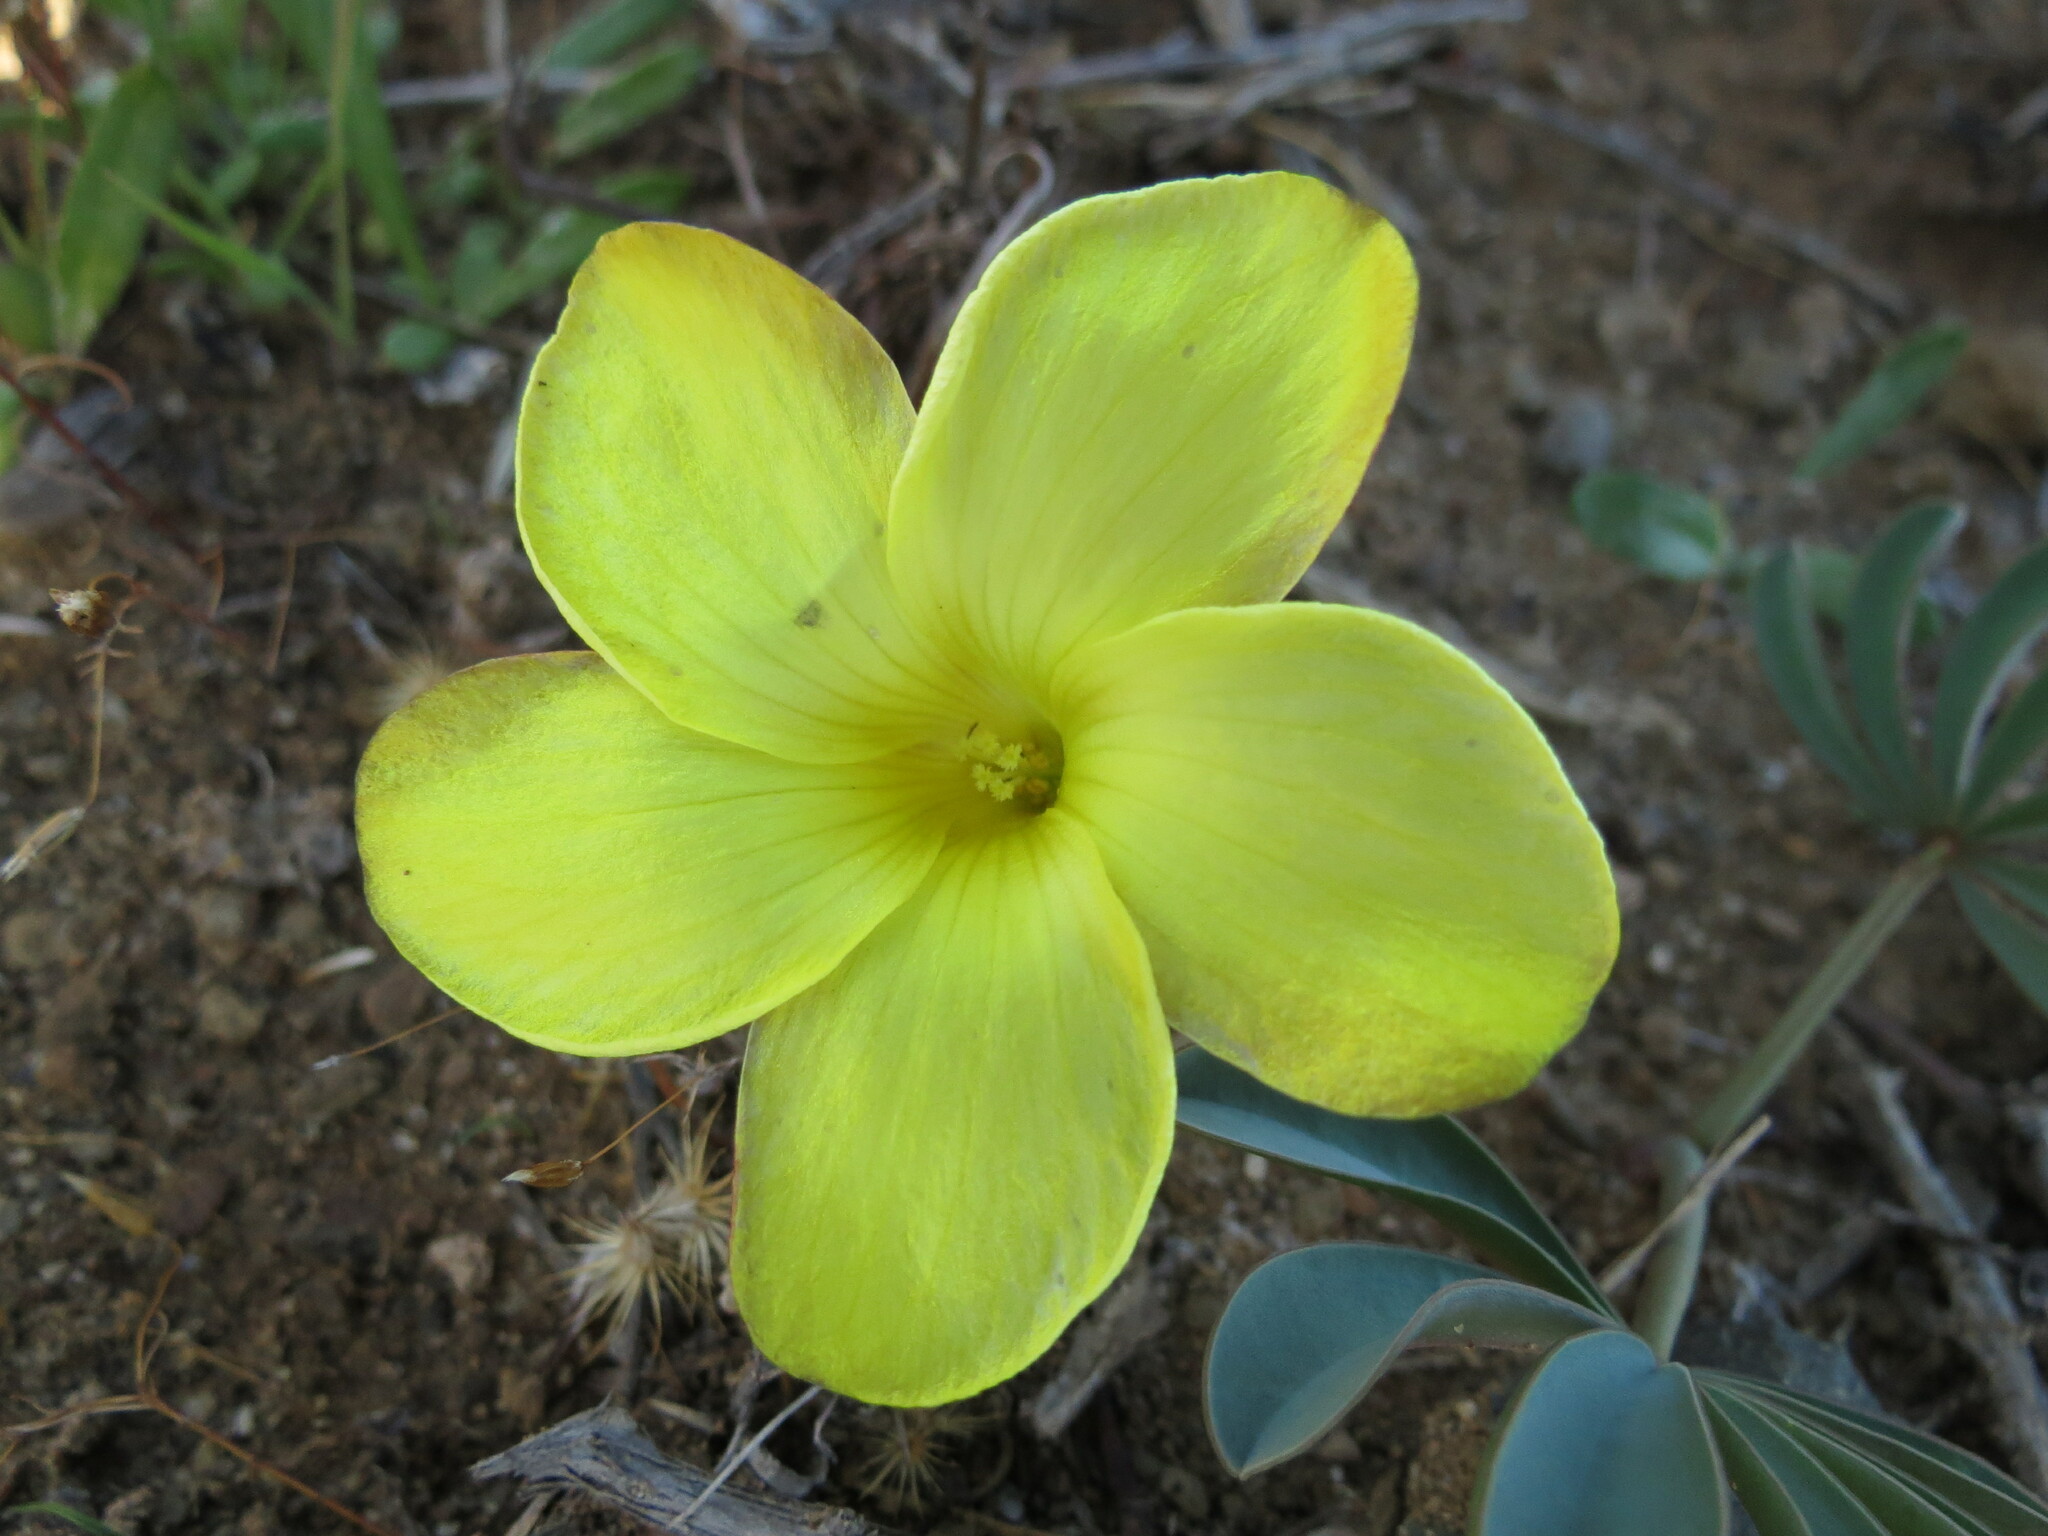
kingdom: Plantae
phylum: Tracheophyta
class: Magnoliopsida
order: Oxalidales
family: Oxalidaceae
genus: Oxalis
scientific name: Oxalis flava
